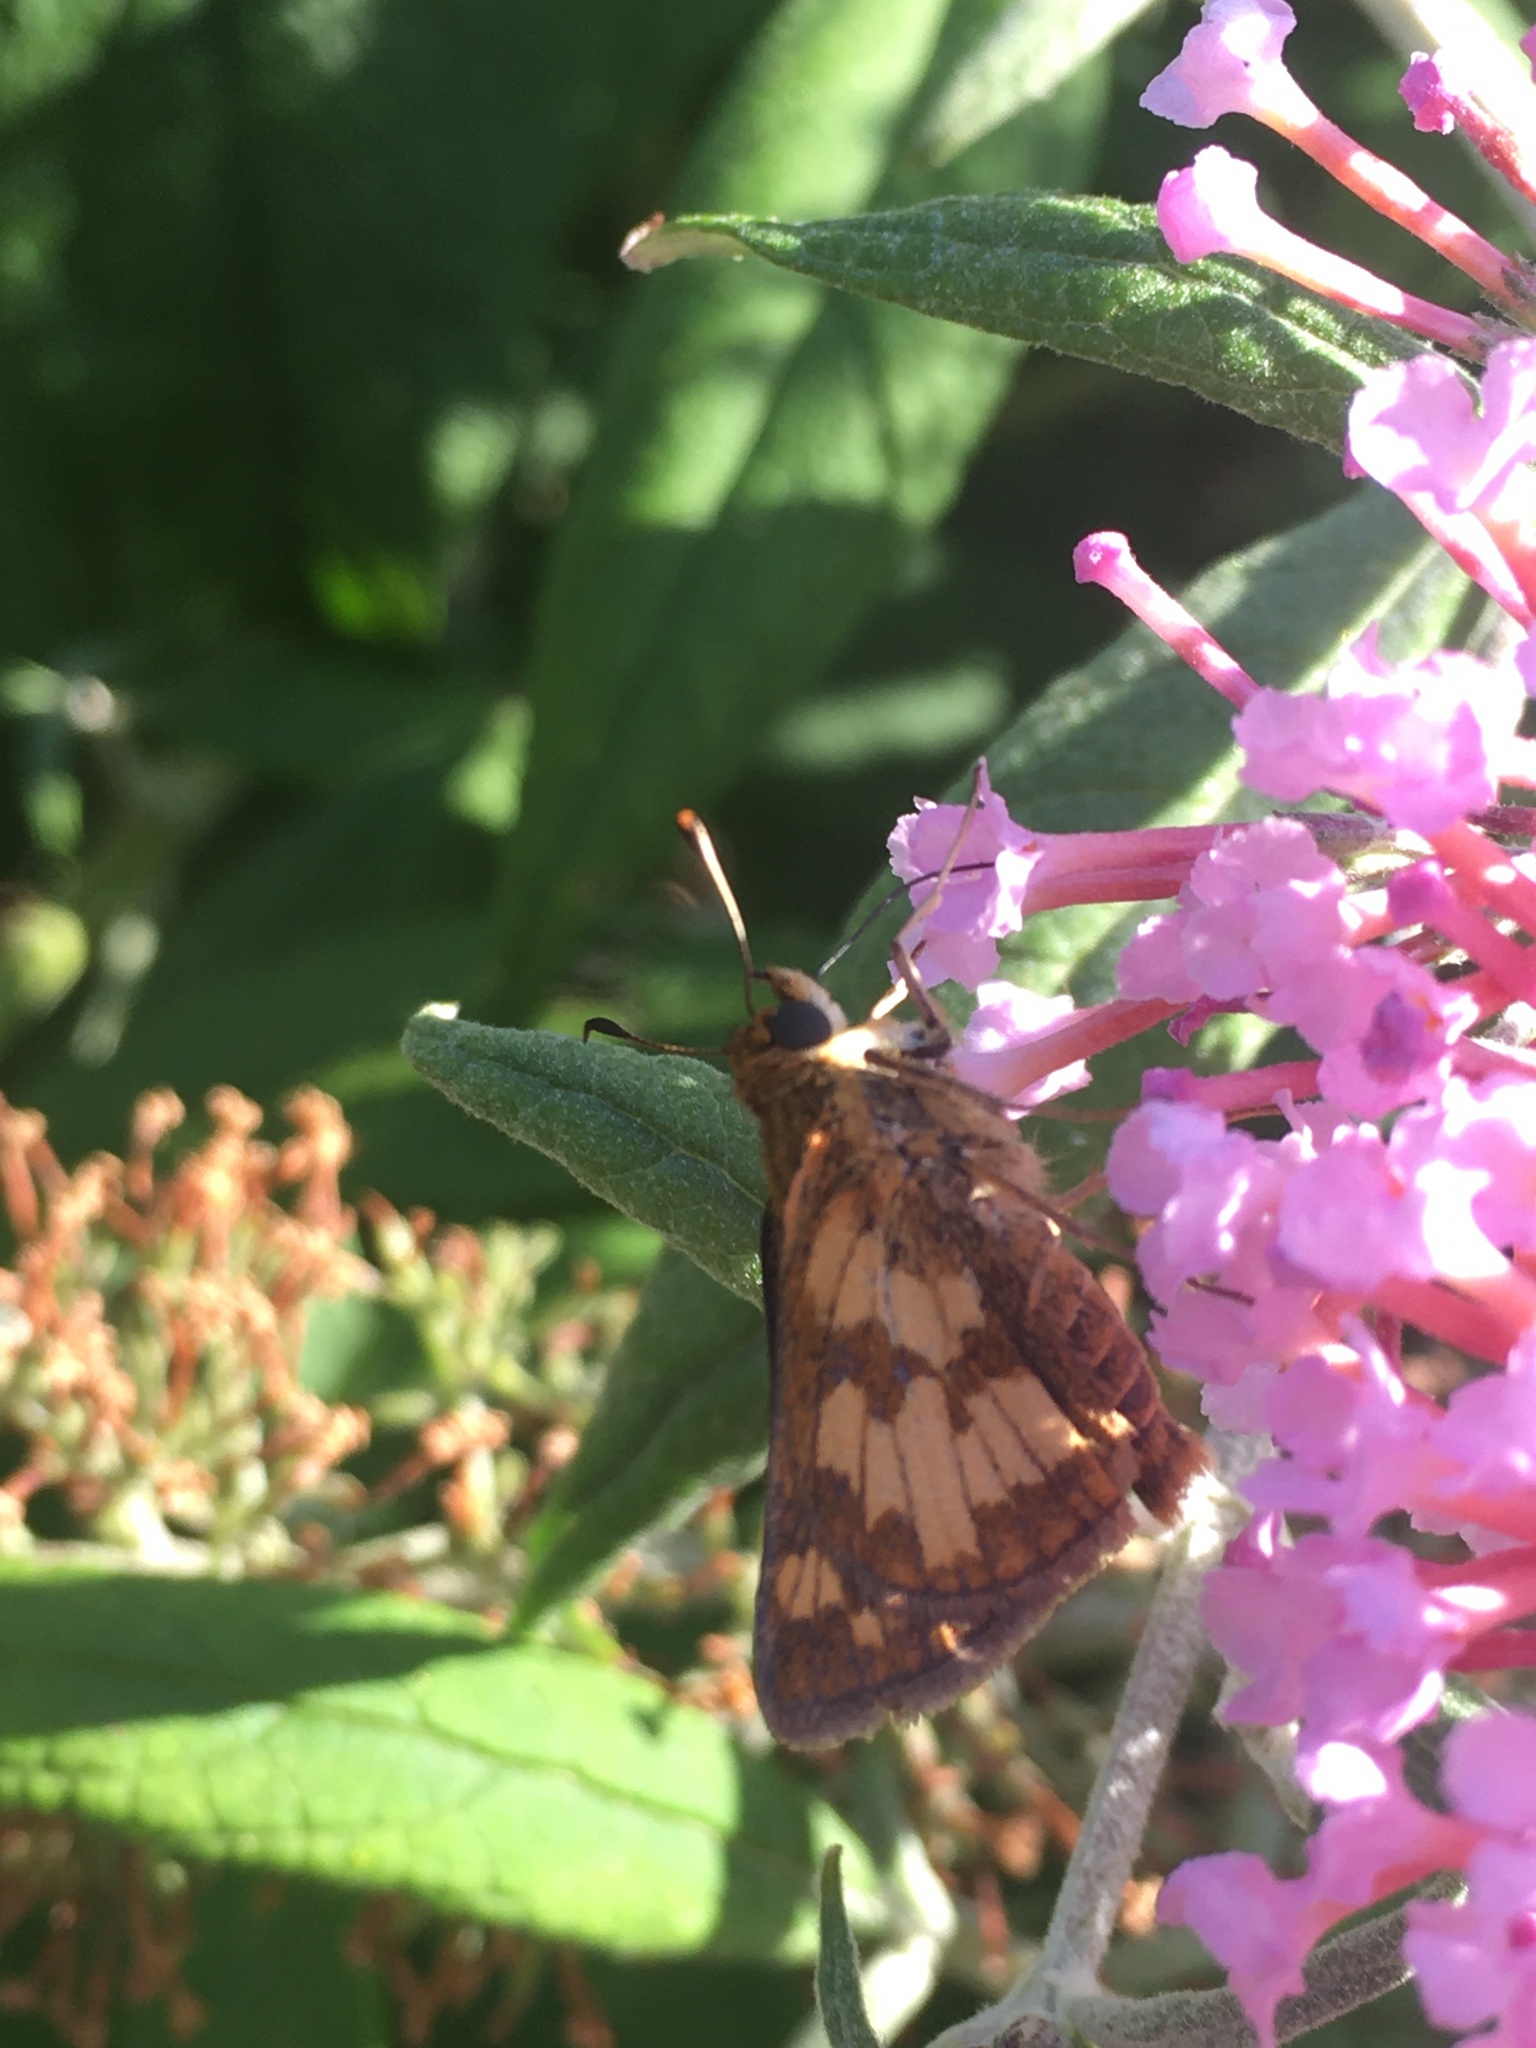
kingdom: Animalia
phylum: Arthropoda
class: Insecta
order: Lepidoptera
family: Hesperiidae
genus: Polites
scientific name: Polites coras
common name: Peck's skipper
